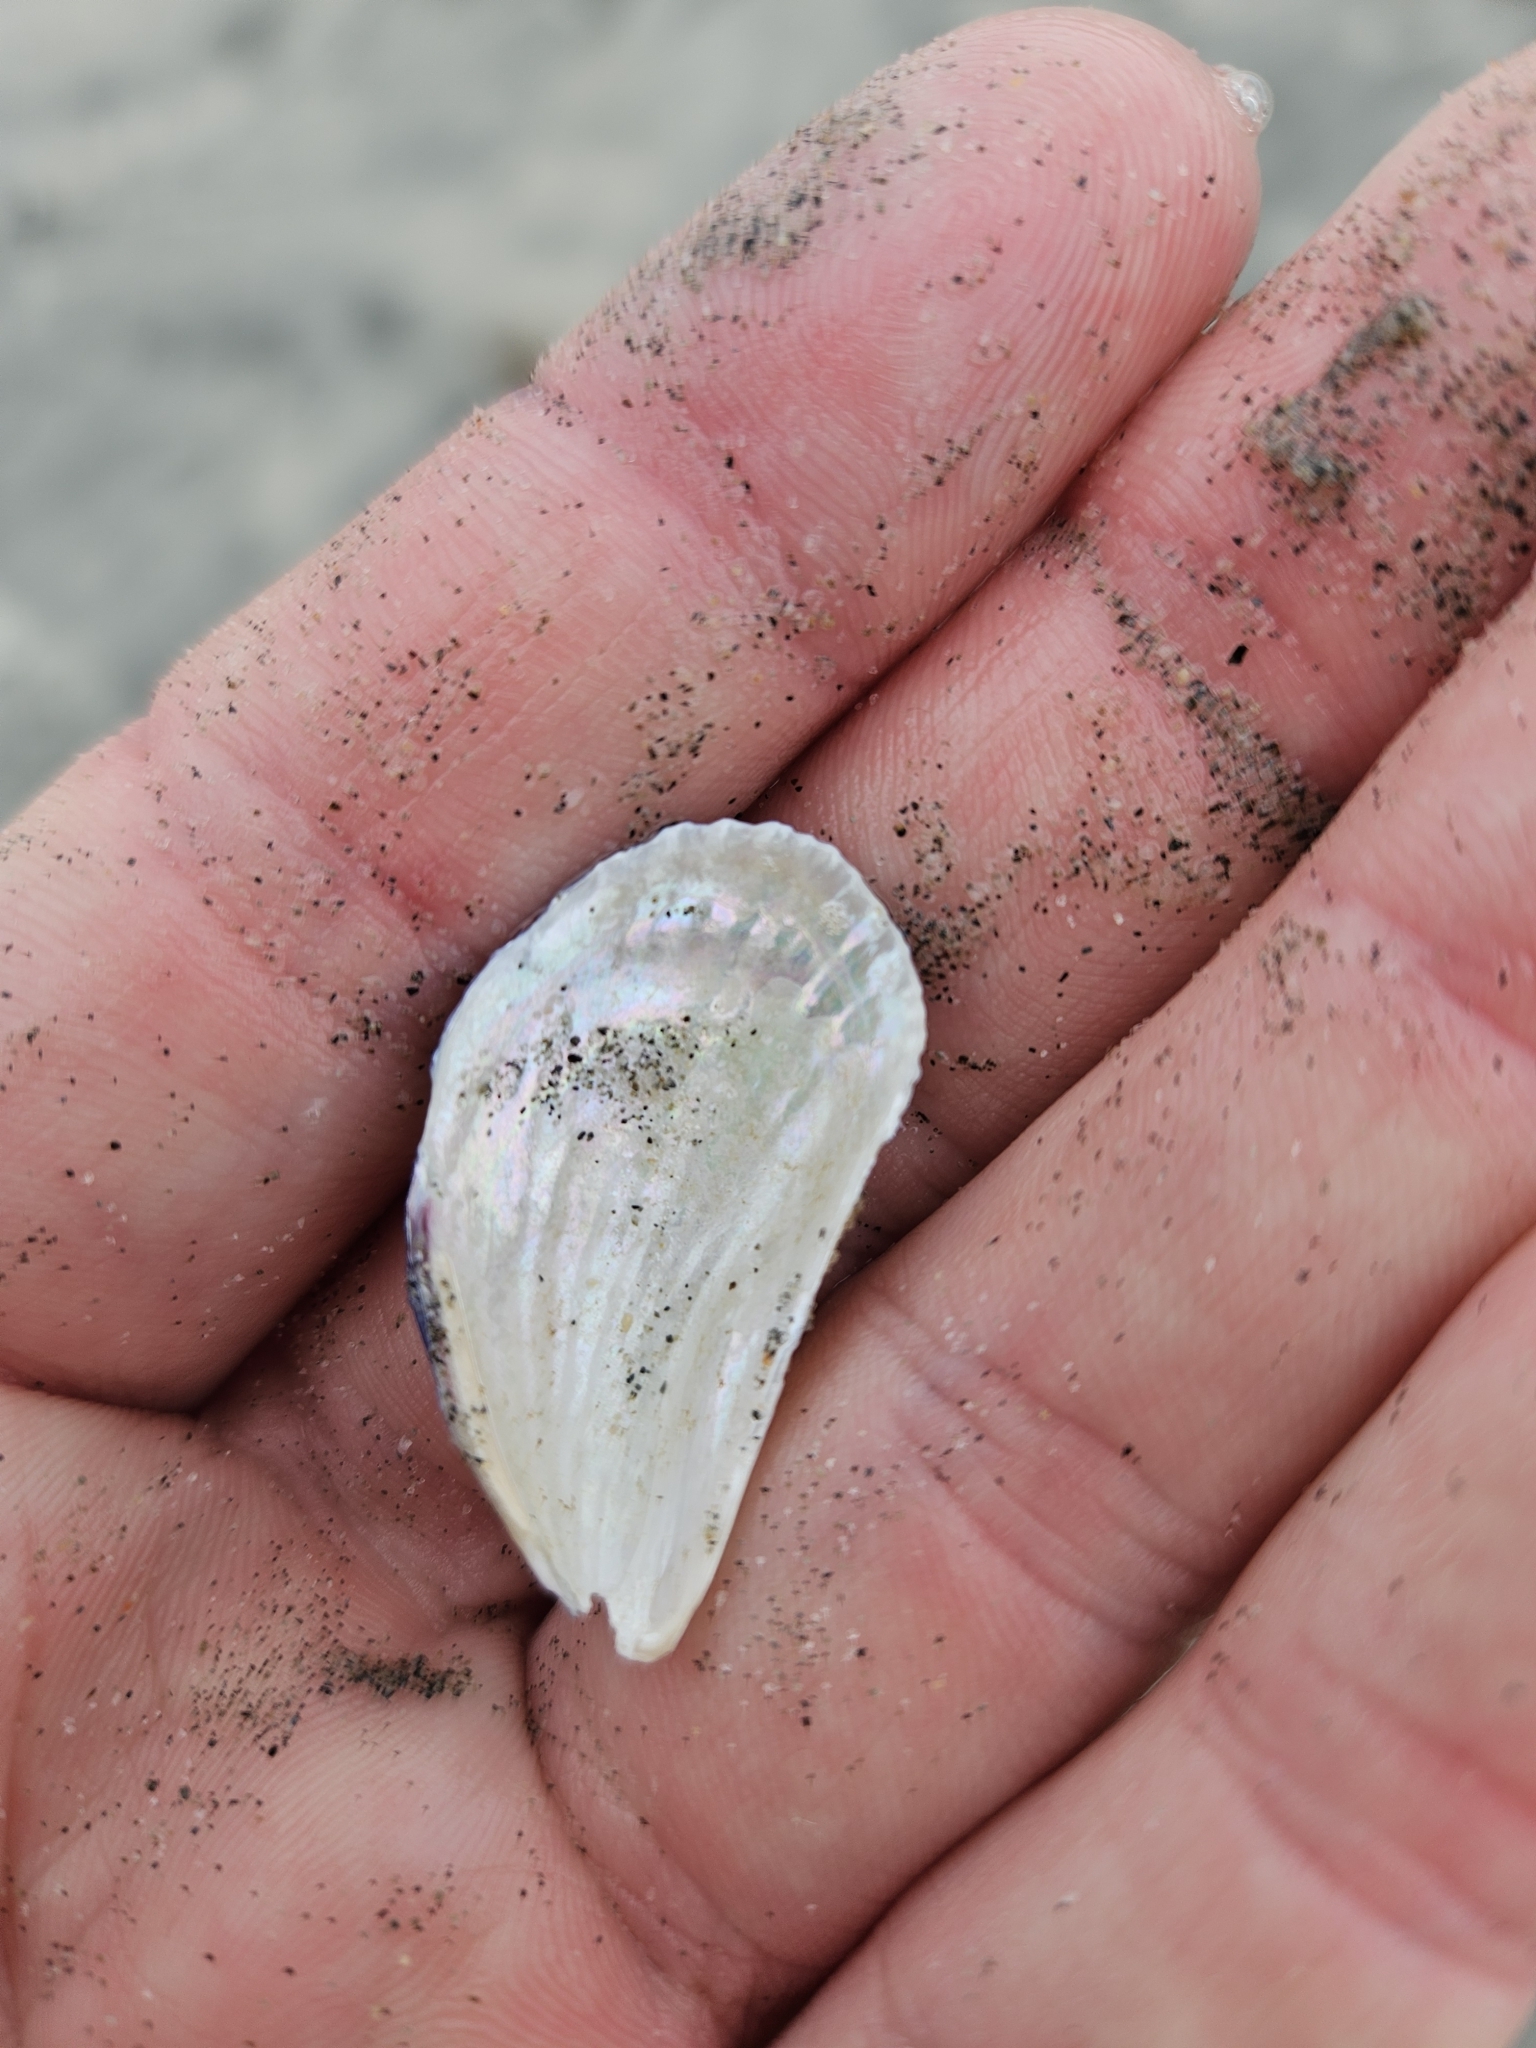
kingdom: Animalia
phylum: Mollusca
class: Bivalvia
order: Mytilida
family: Mytilidae
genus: Aulacomya
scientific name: Aulacomya maoriana
